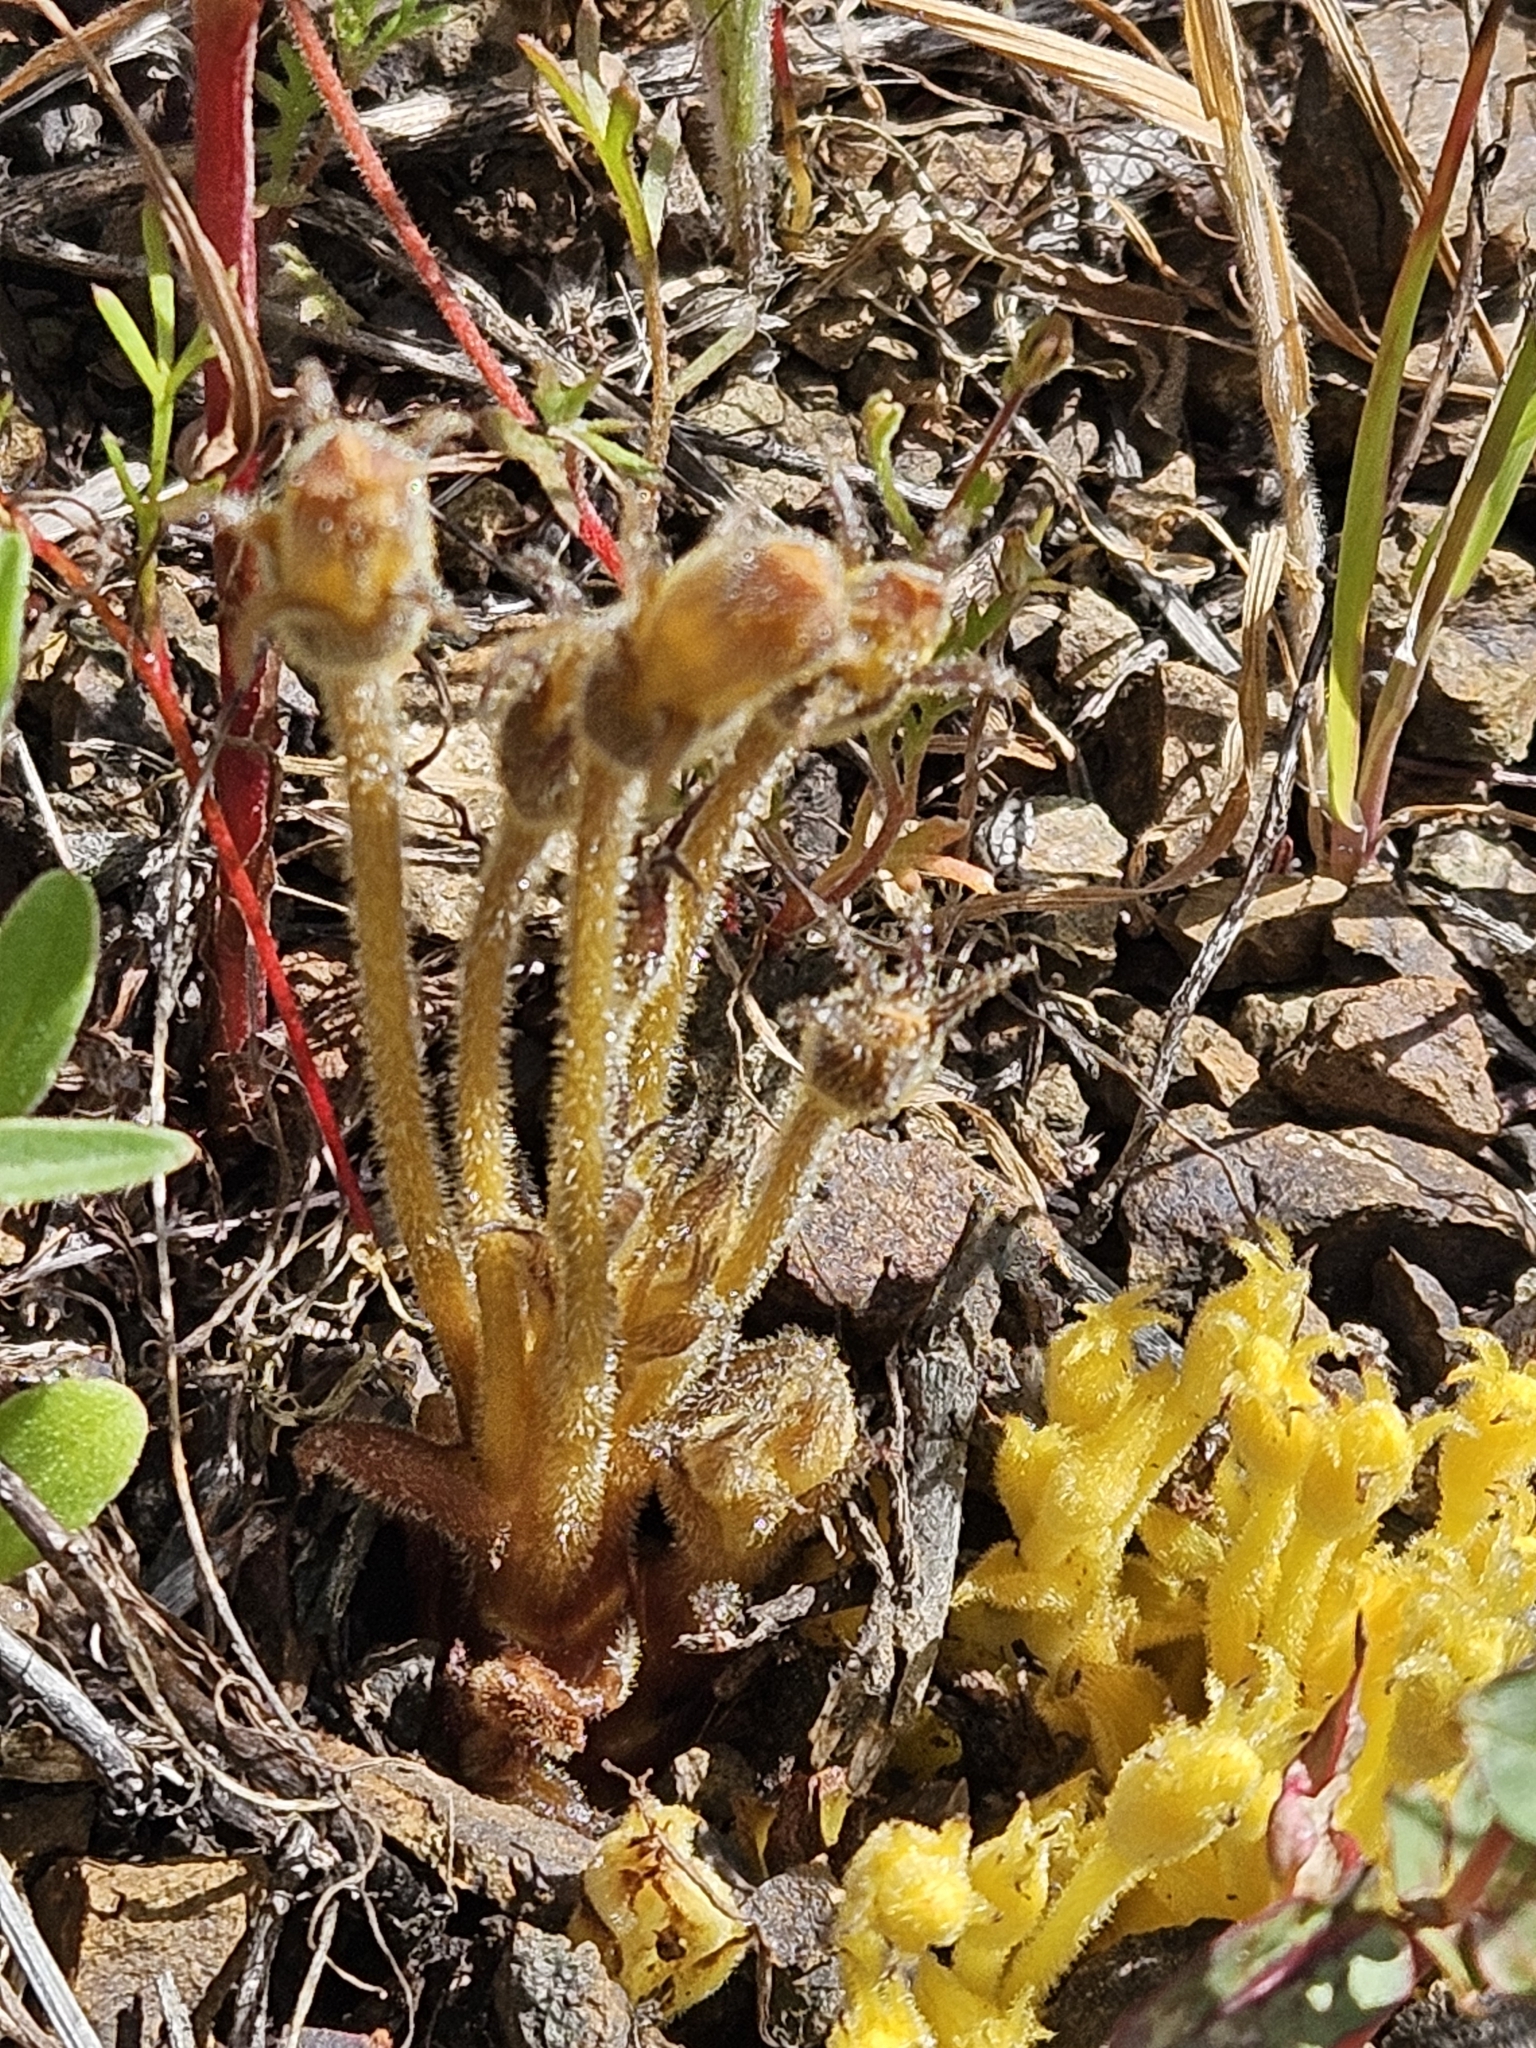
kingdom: Plantae
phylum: Tracheophyta
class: Magnoliopsida
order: Lamiales
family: Orobanchaceae
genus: Aphyllon
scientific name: Aphyllon franciscanum
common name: San francisco broomrape
